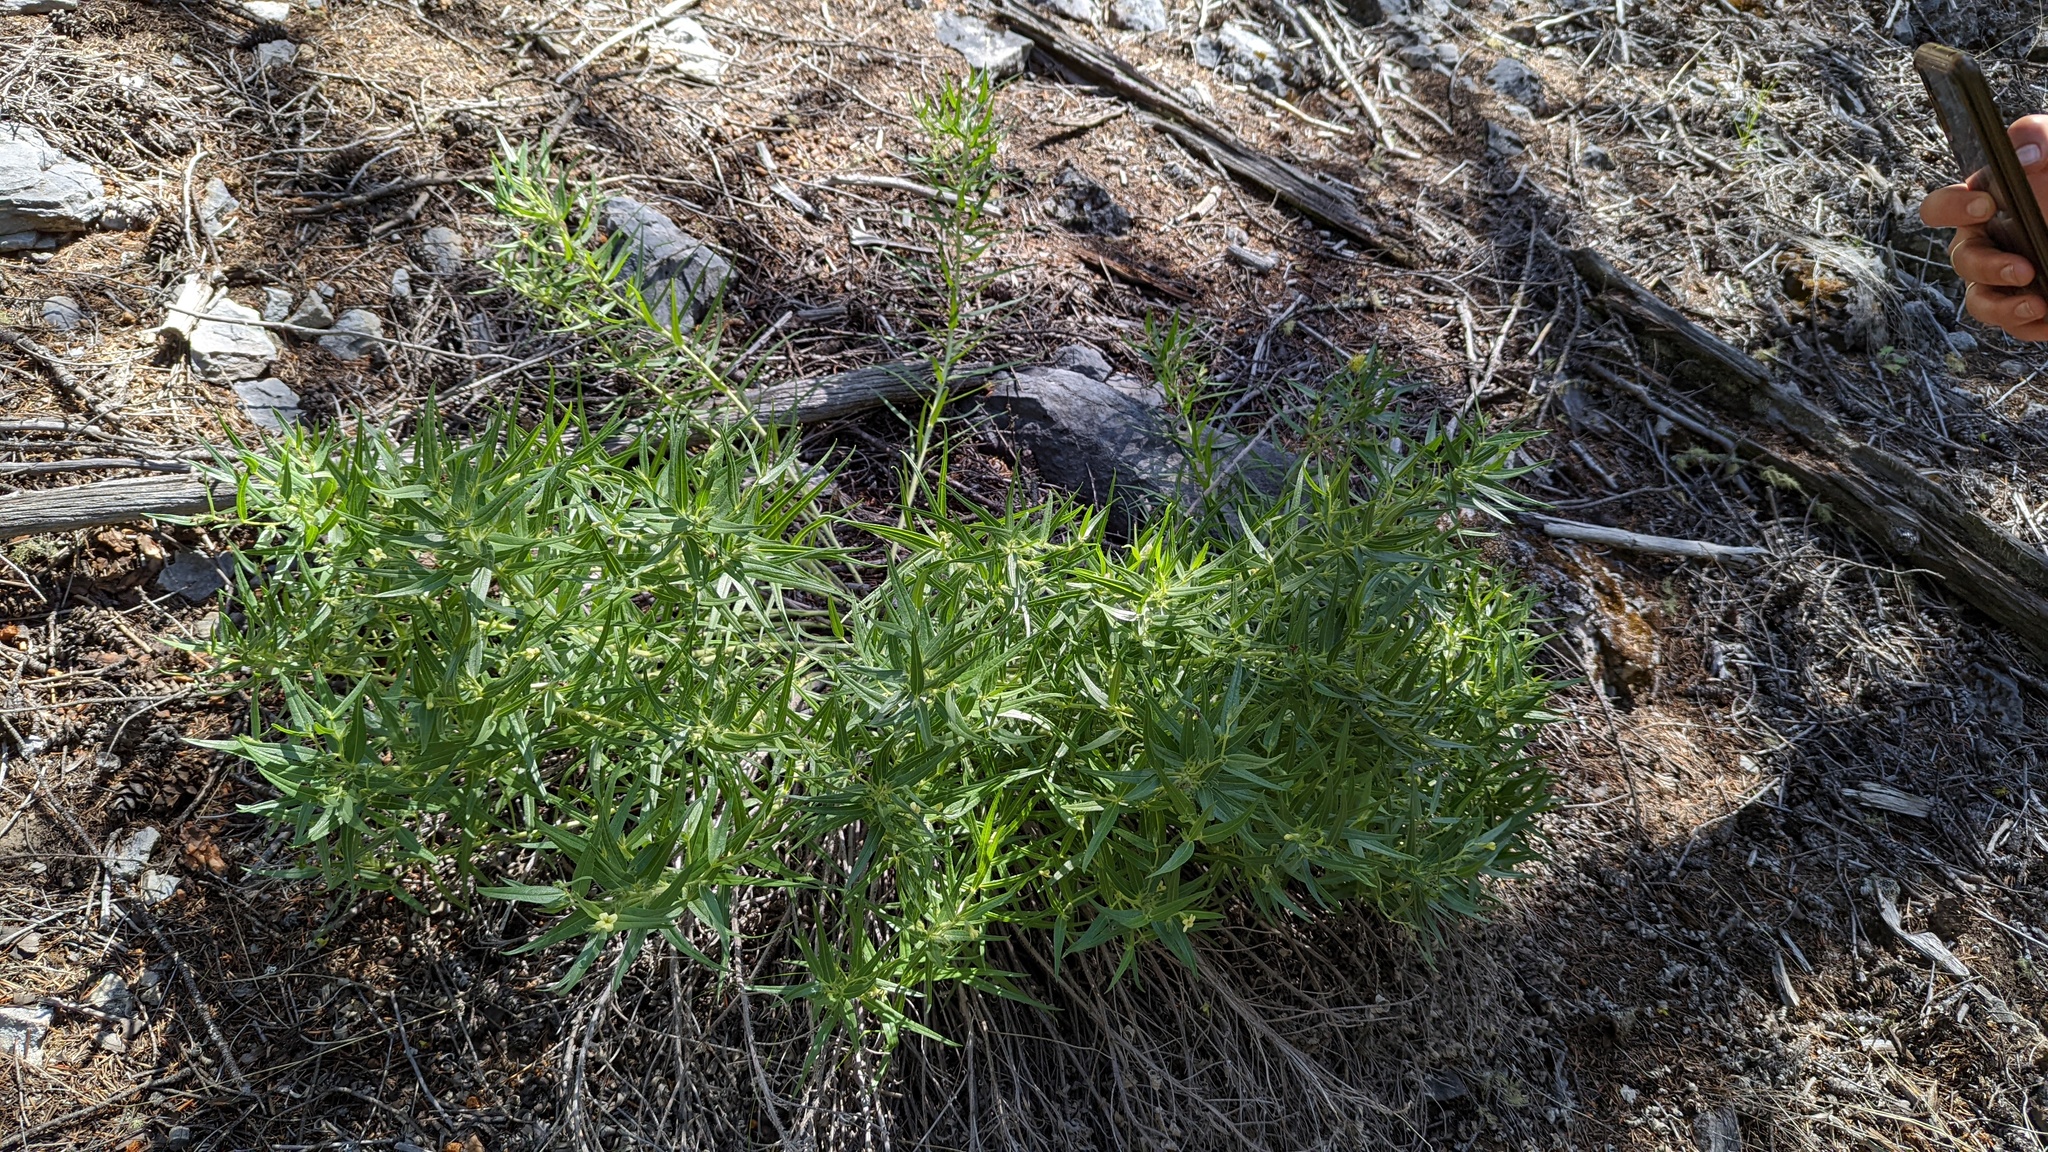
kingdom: Plantae
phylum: Tracheophyta
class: Magnoliopsida
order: Boraginales
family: Boraginaceae
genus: Lithospermum
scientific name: Lithospermum ruderale
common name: Western gromwell
